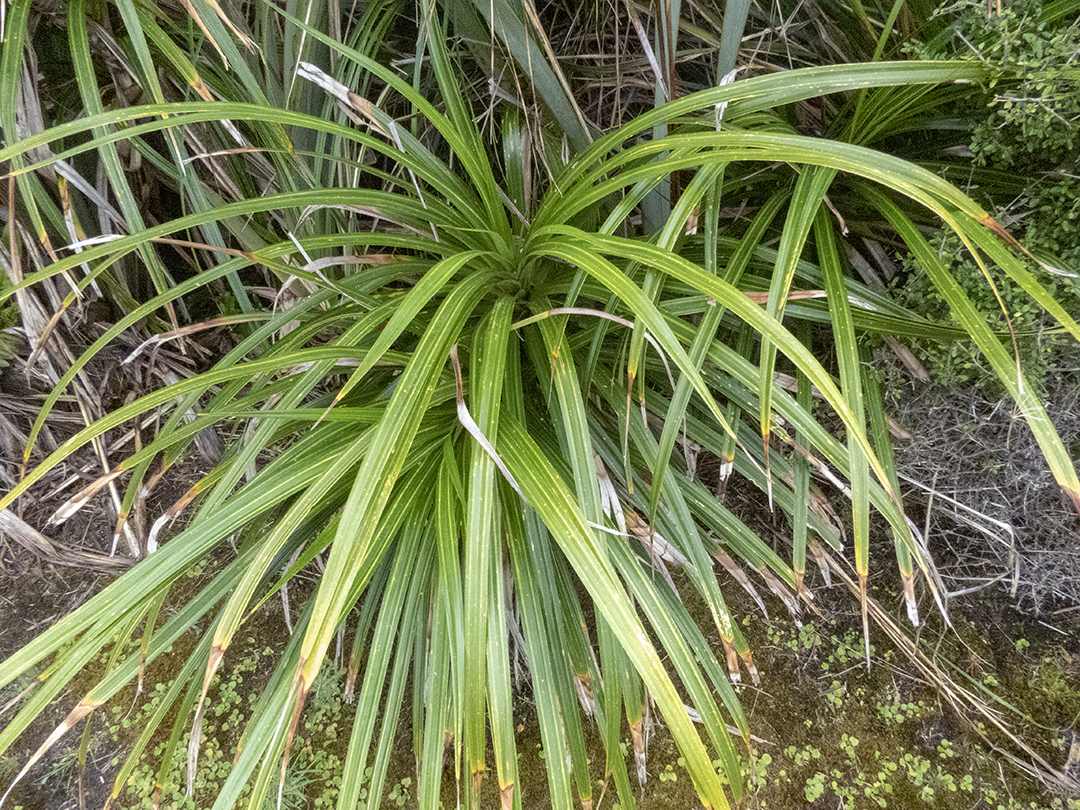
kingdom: Plantae
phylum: Tracheophyta
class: Liliopsida
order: Pandanales
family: Pandanaceae
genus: Freycinetia
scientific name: Freycinetia banksii
